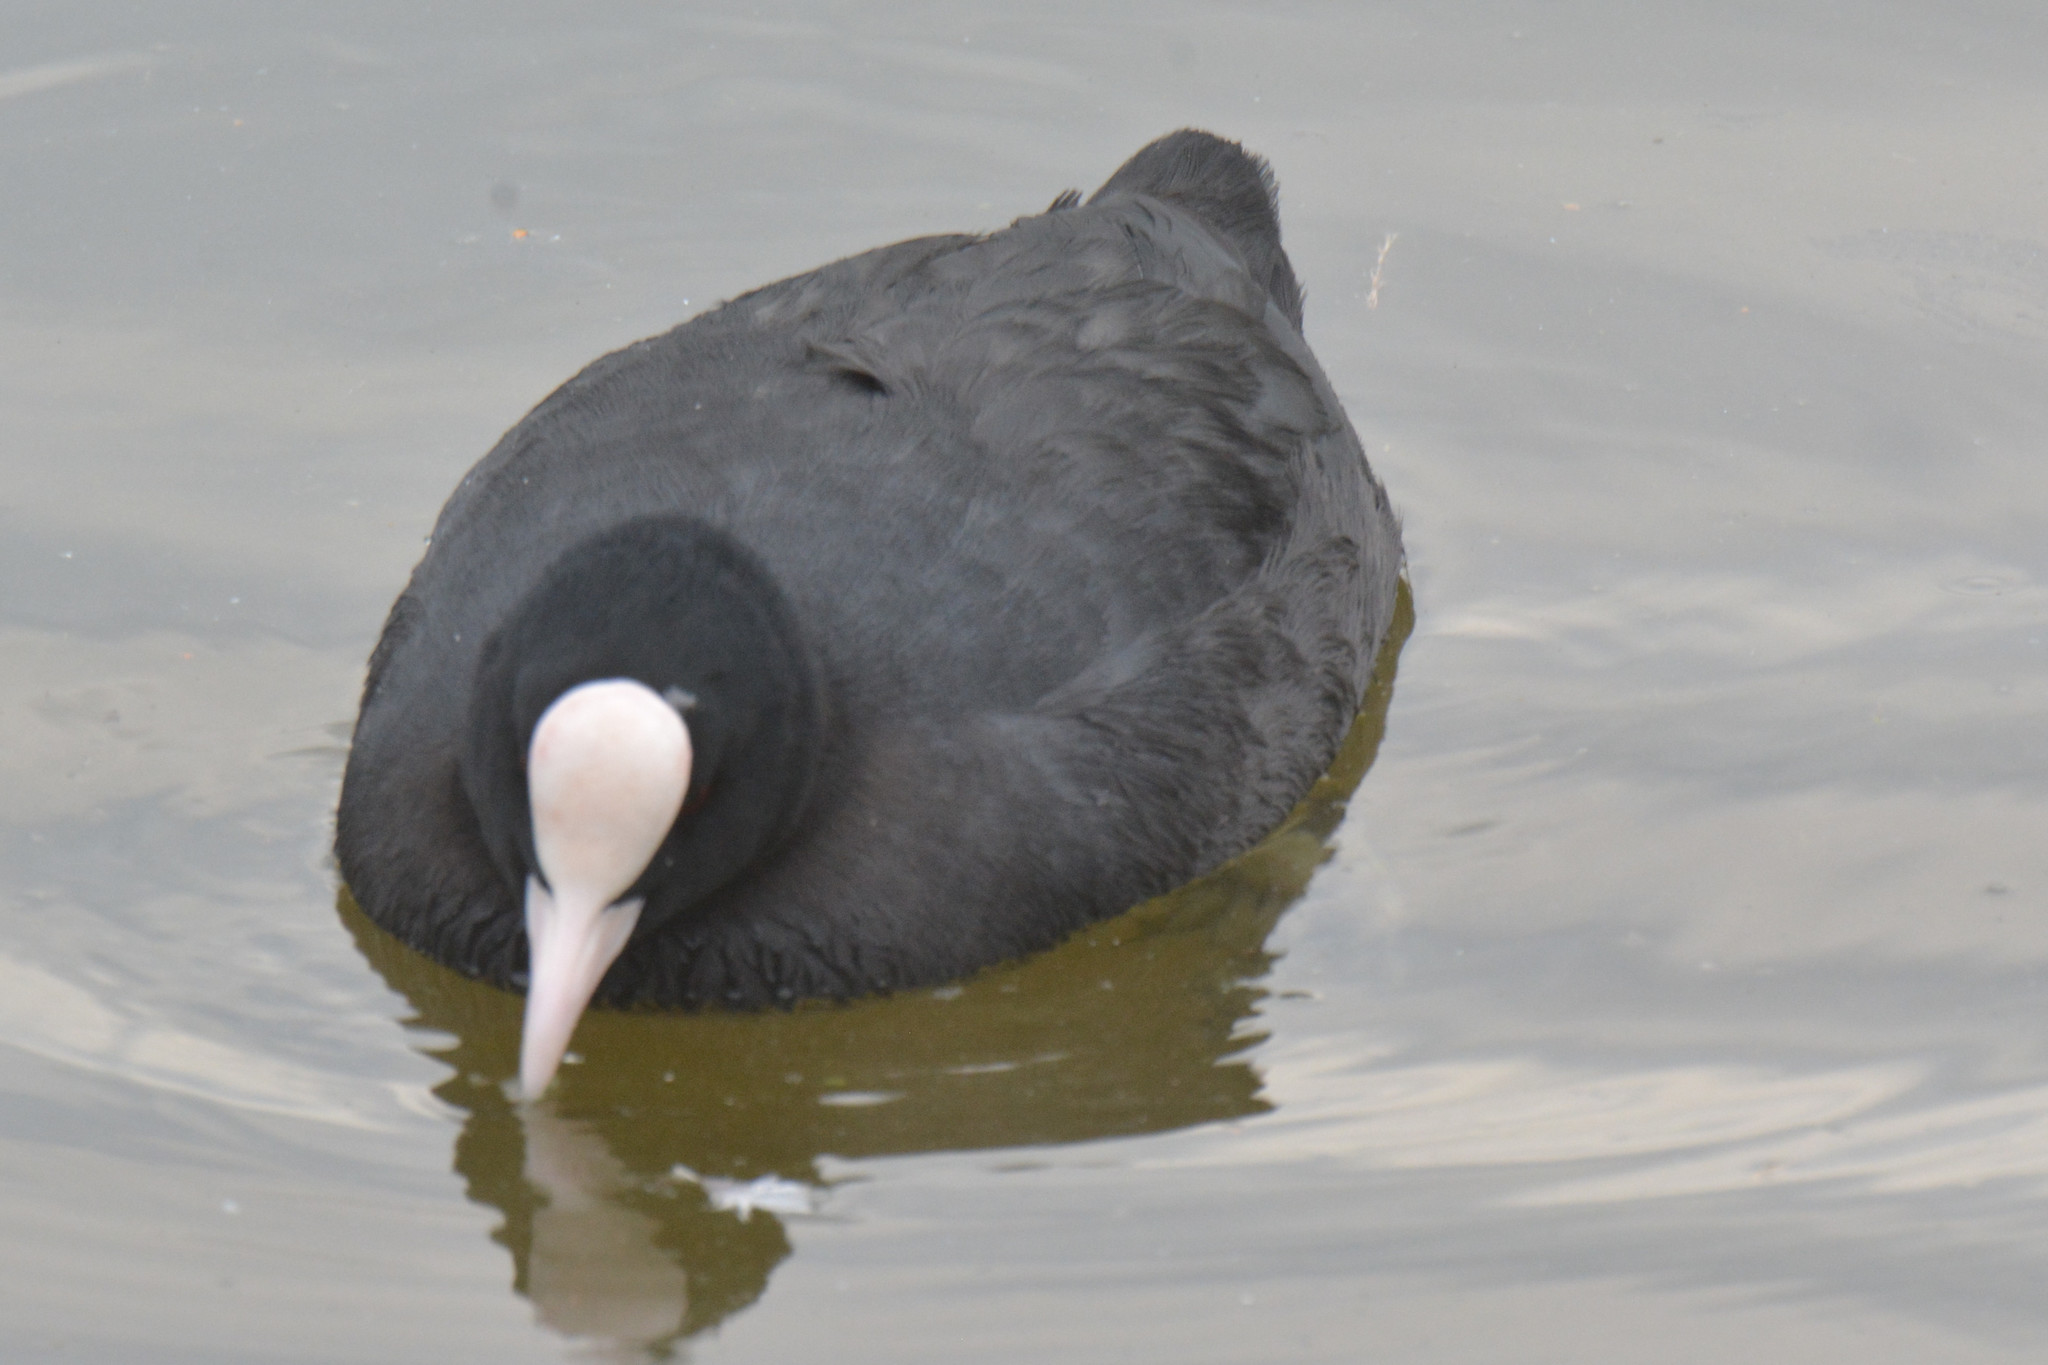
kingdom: Animalia
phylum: Chordata
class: Aves
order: Gruiformes
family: Rallidae
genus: Fulica
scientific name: Fulica atra
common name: Eurasian coot
